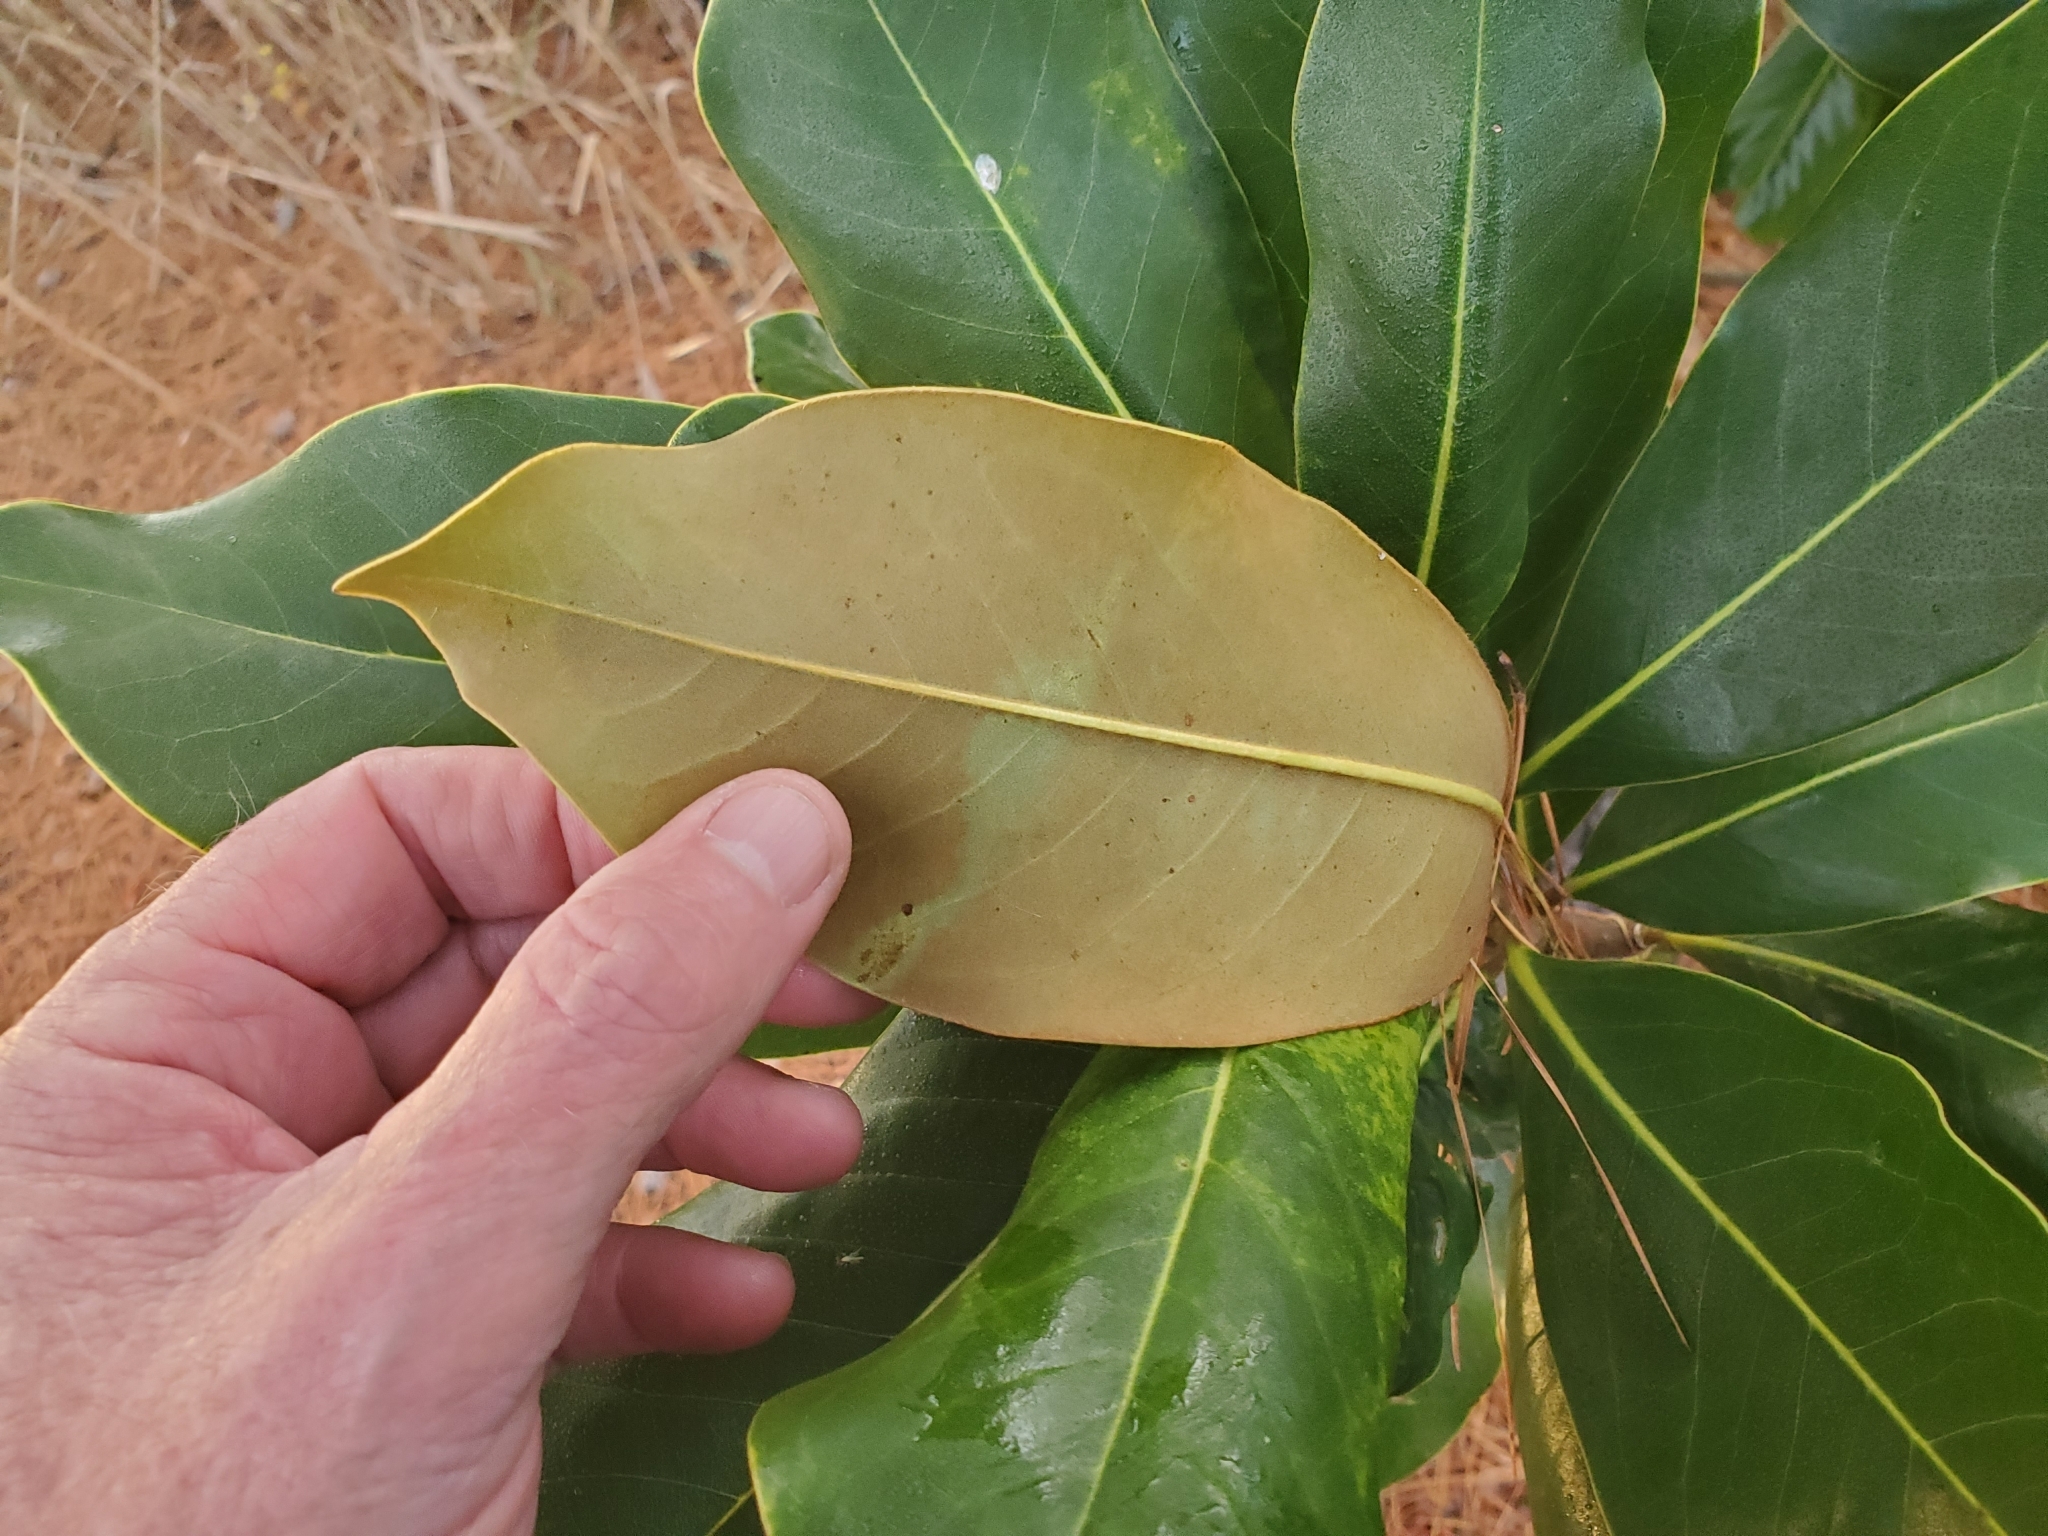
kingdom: Plantae
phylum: Tracheophyta
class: Magnoliopsida
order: Magnoliales
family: Magnoliaceae
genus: Magnolia
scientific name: Magnolia grandiflora
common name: Southern magnolia
